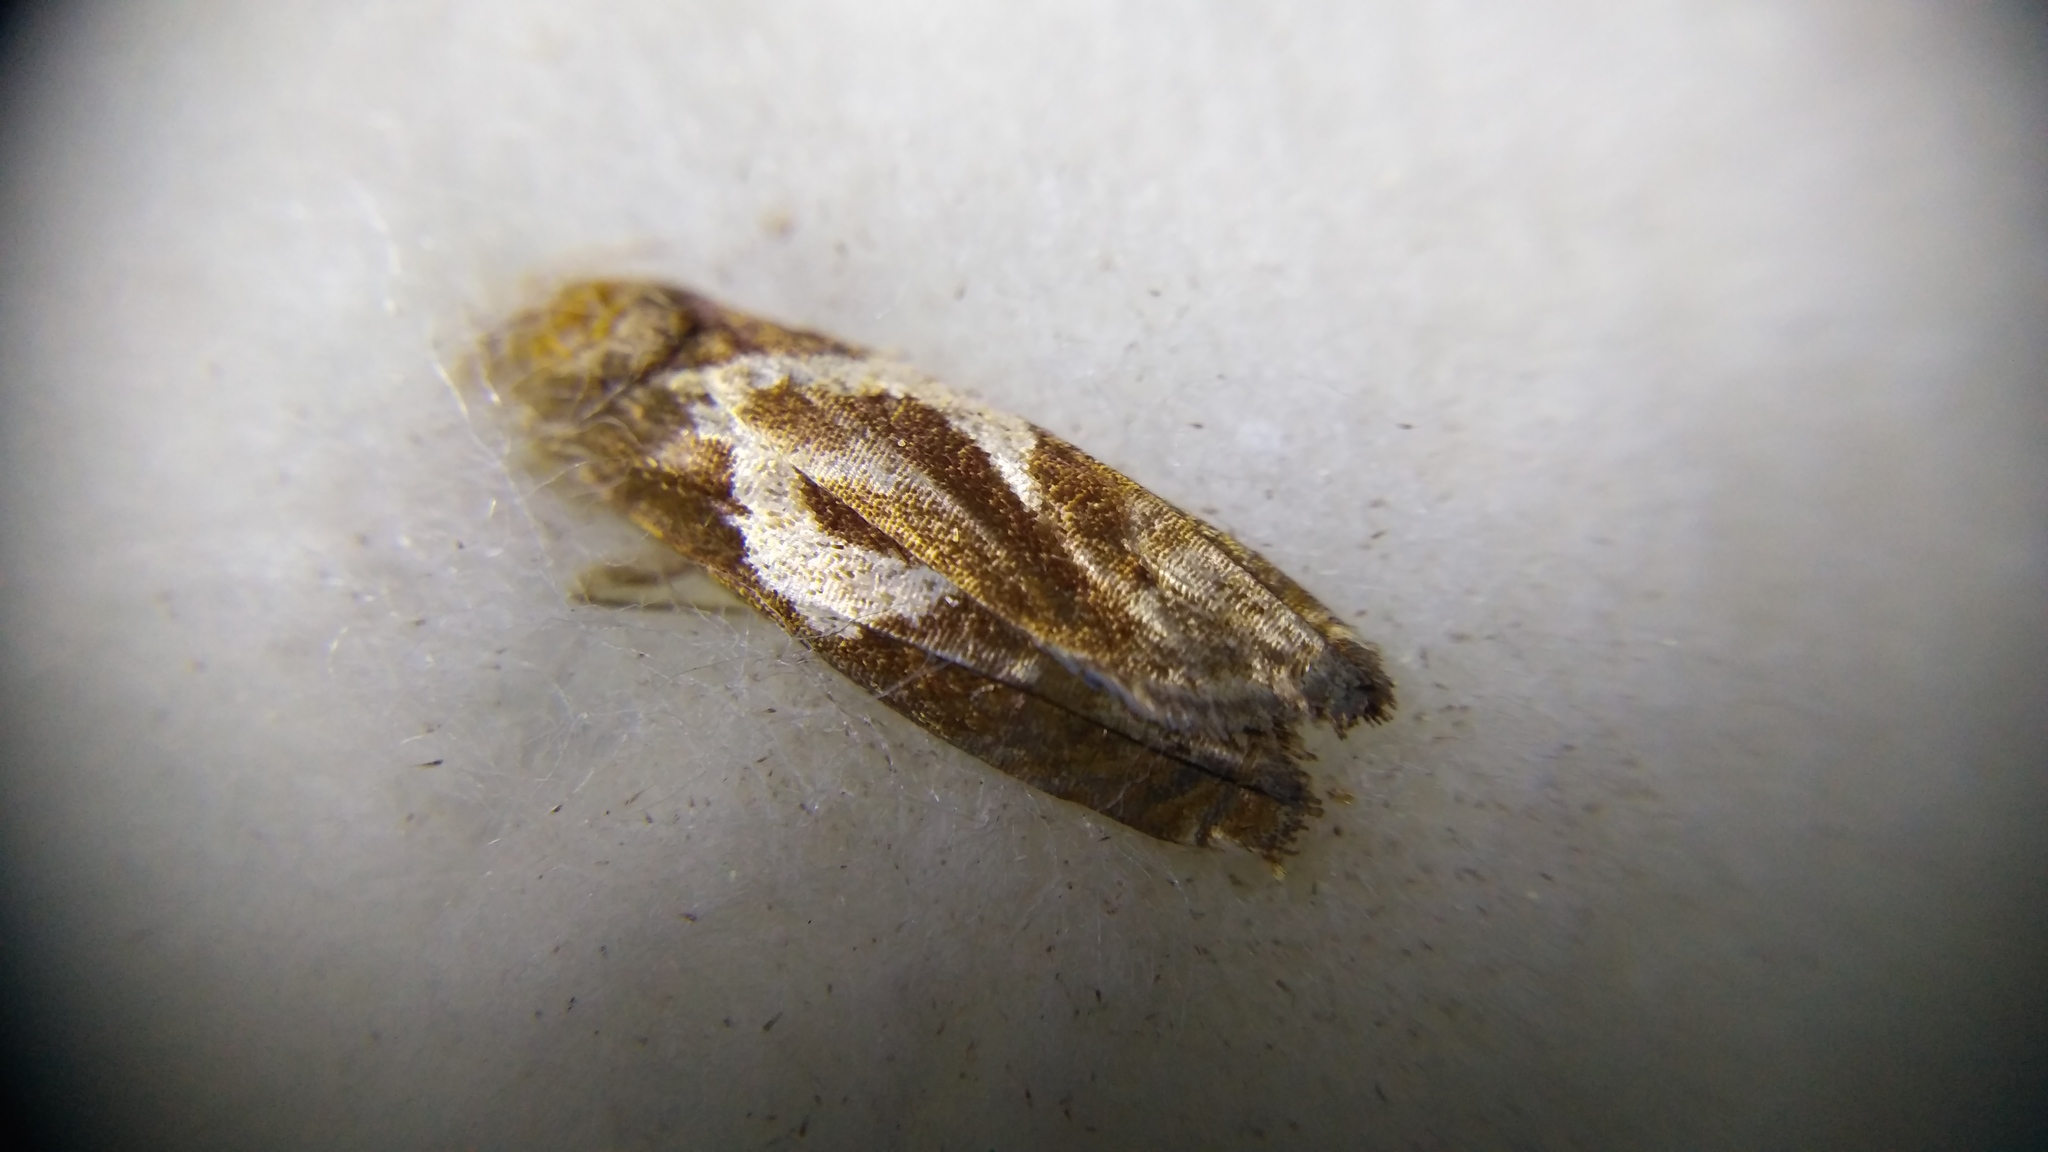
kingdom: Animalia
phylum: Arthropoda
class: Insecta
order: Lepidoptera
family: Tortricidae
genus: Epiblema
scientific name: Epiblema foenella
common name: White-foot bell
